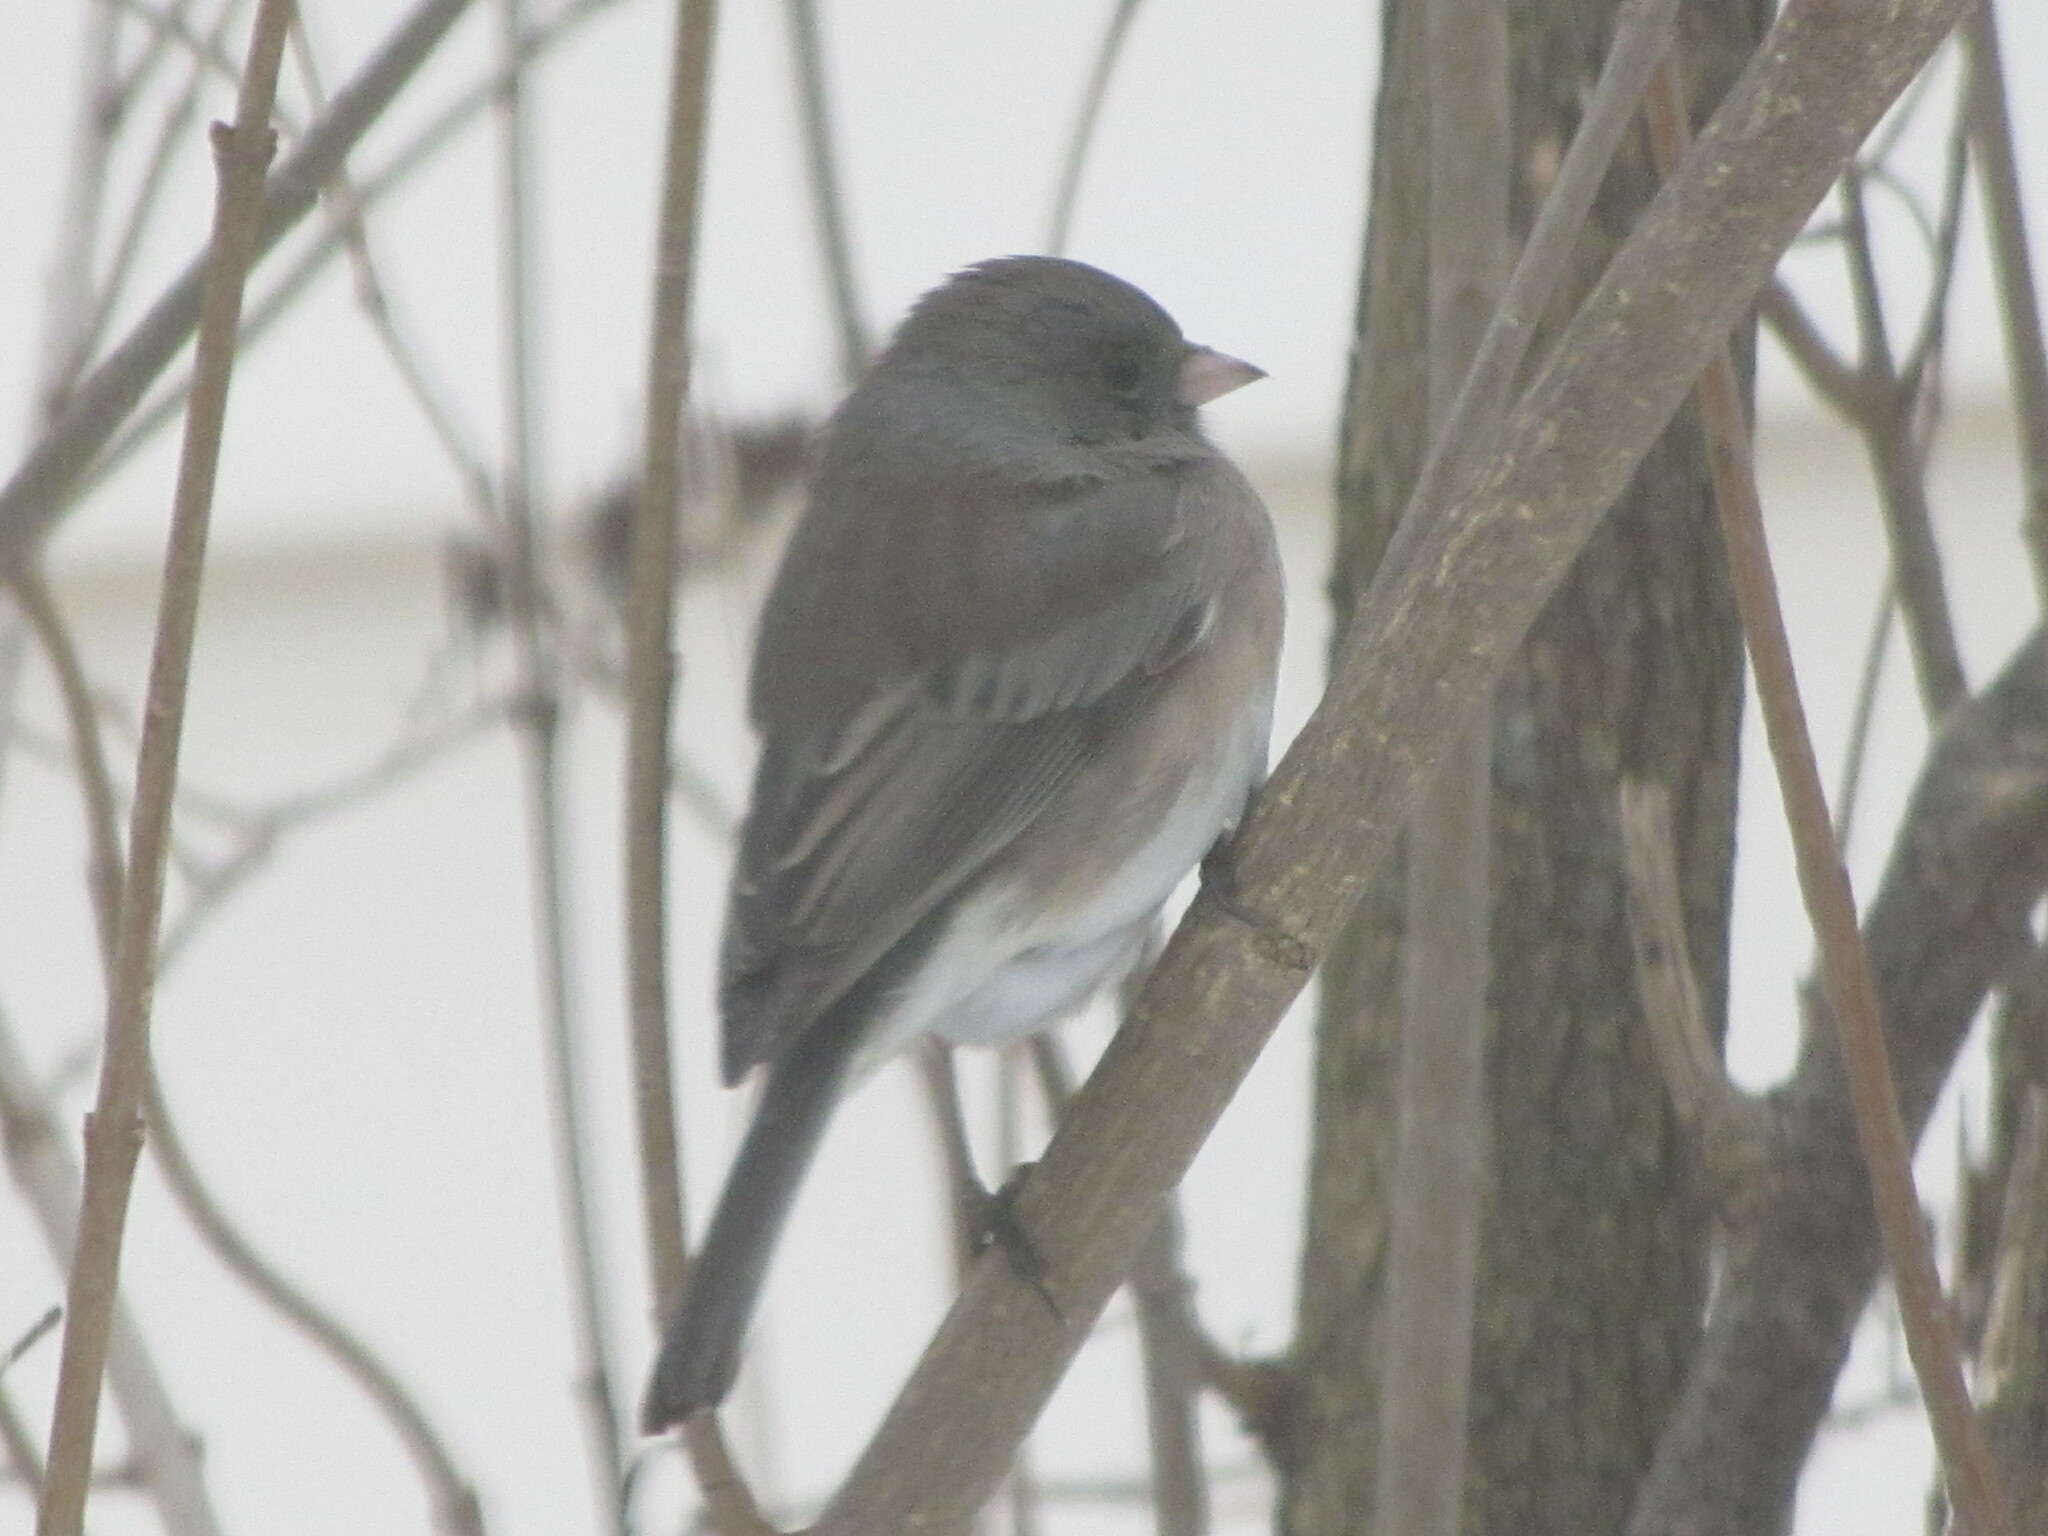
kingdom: Animalia
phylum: Chordata
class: Aves
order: Passeriformes
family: Passerellidae
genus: Junco
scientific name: Junco hyemalis
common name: Dark-eyed junco
